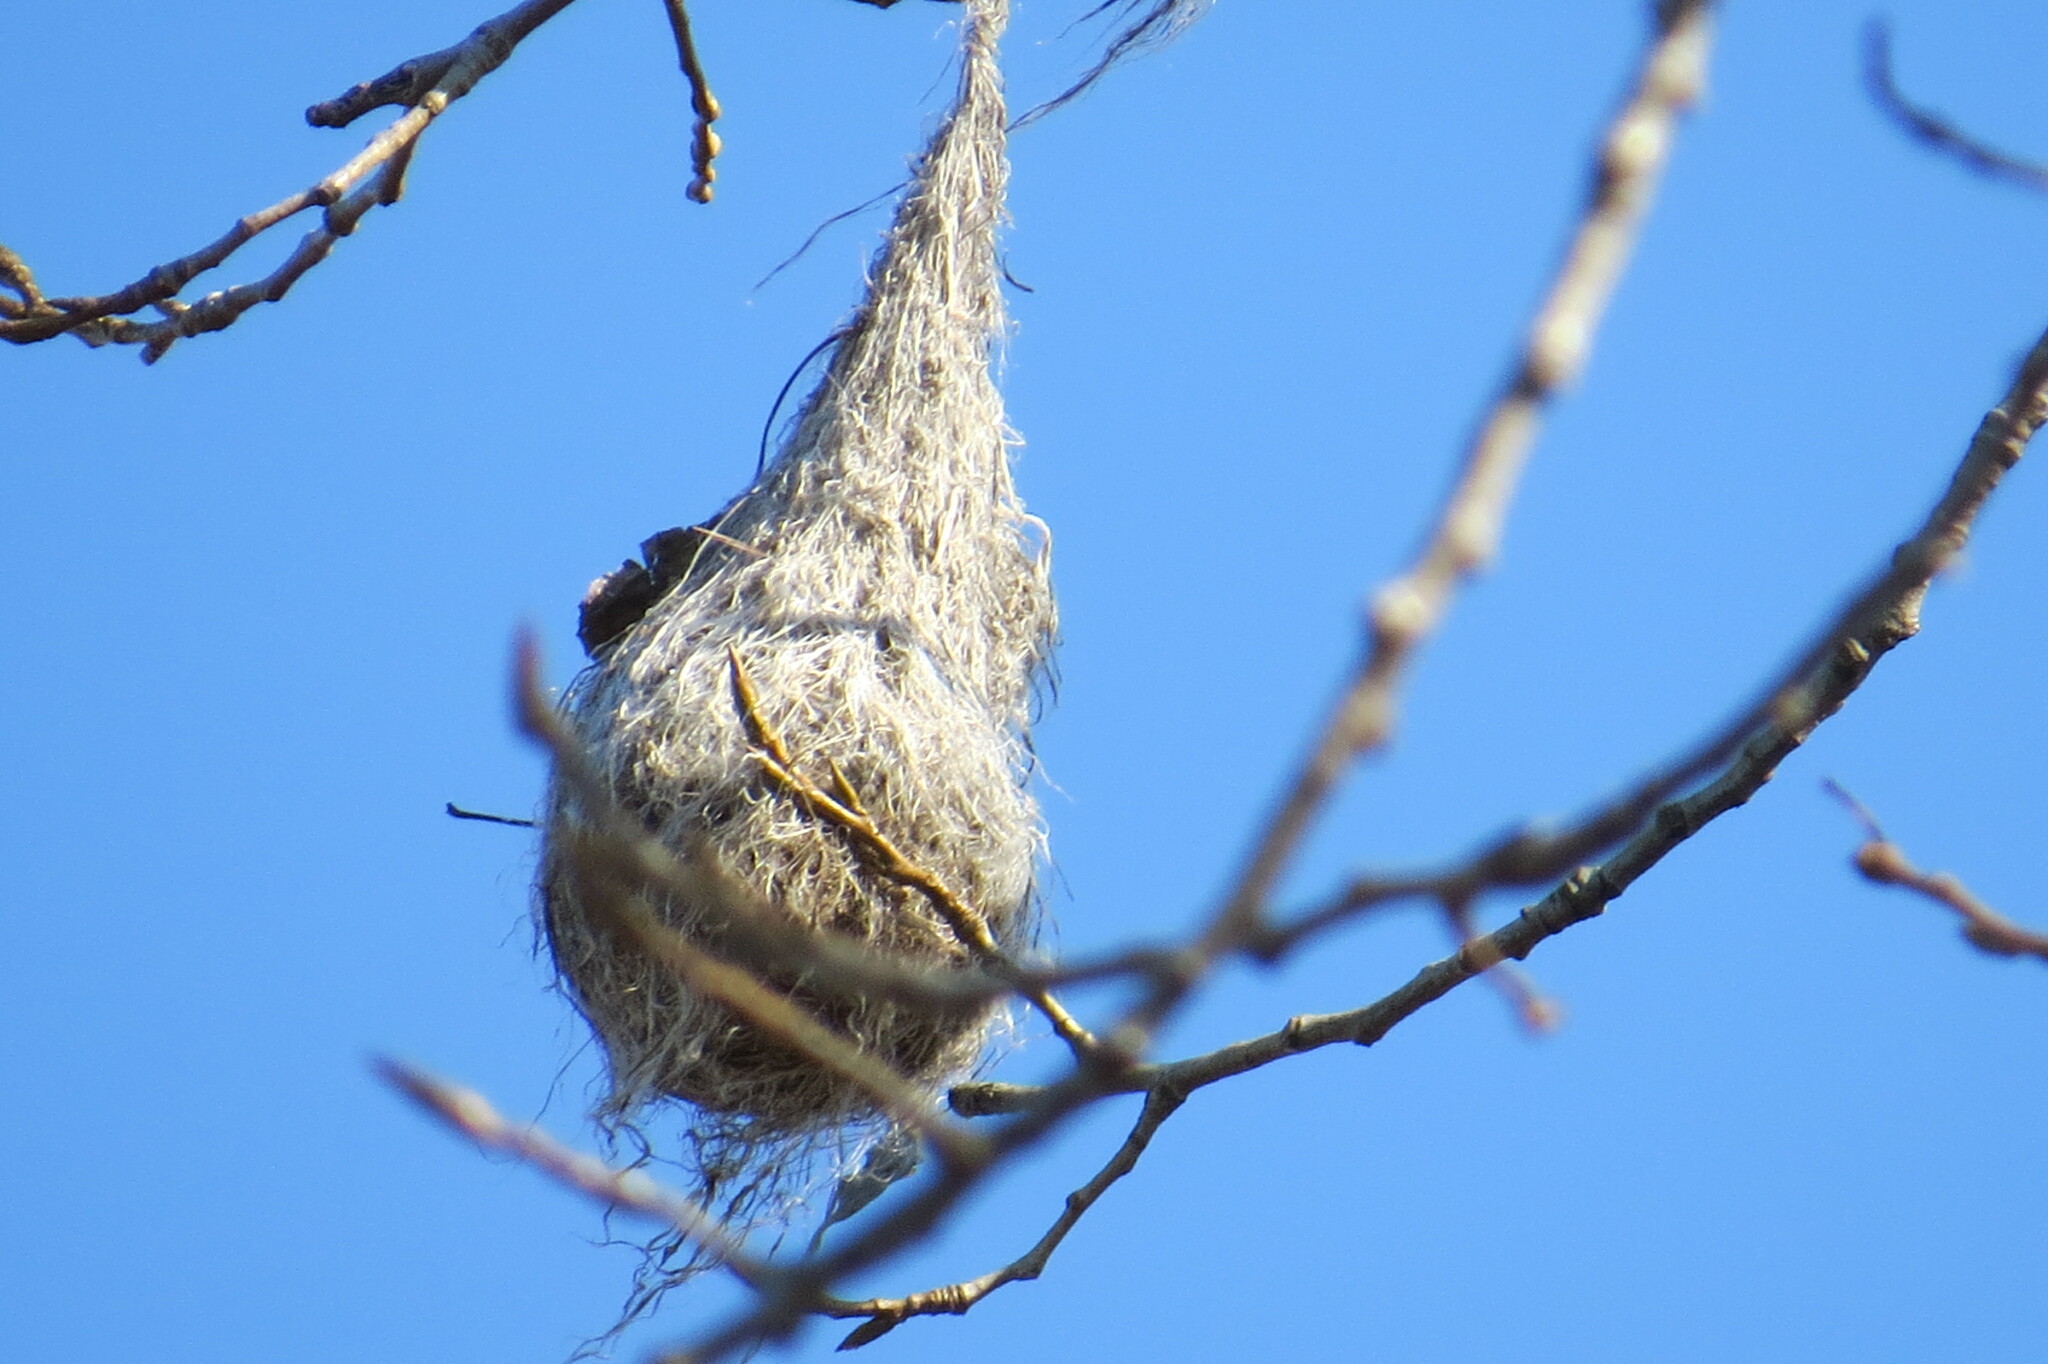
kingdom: Animalia
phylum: Chordata
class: Aves
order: Passeriformes
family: Icteridae
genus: Icterus
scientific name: Icterus galbula
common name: Baltimore oriole
